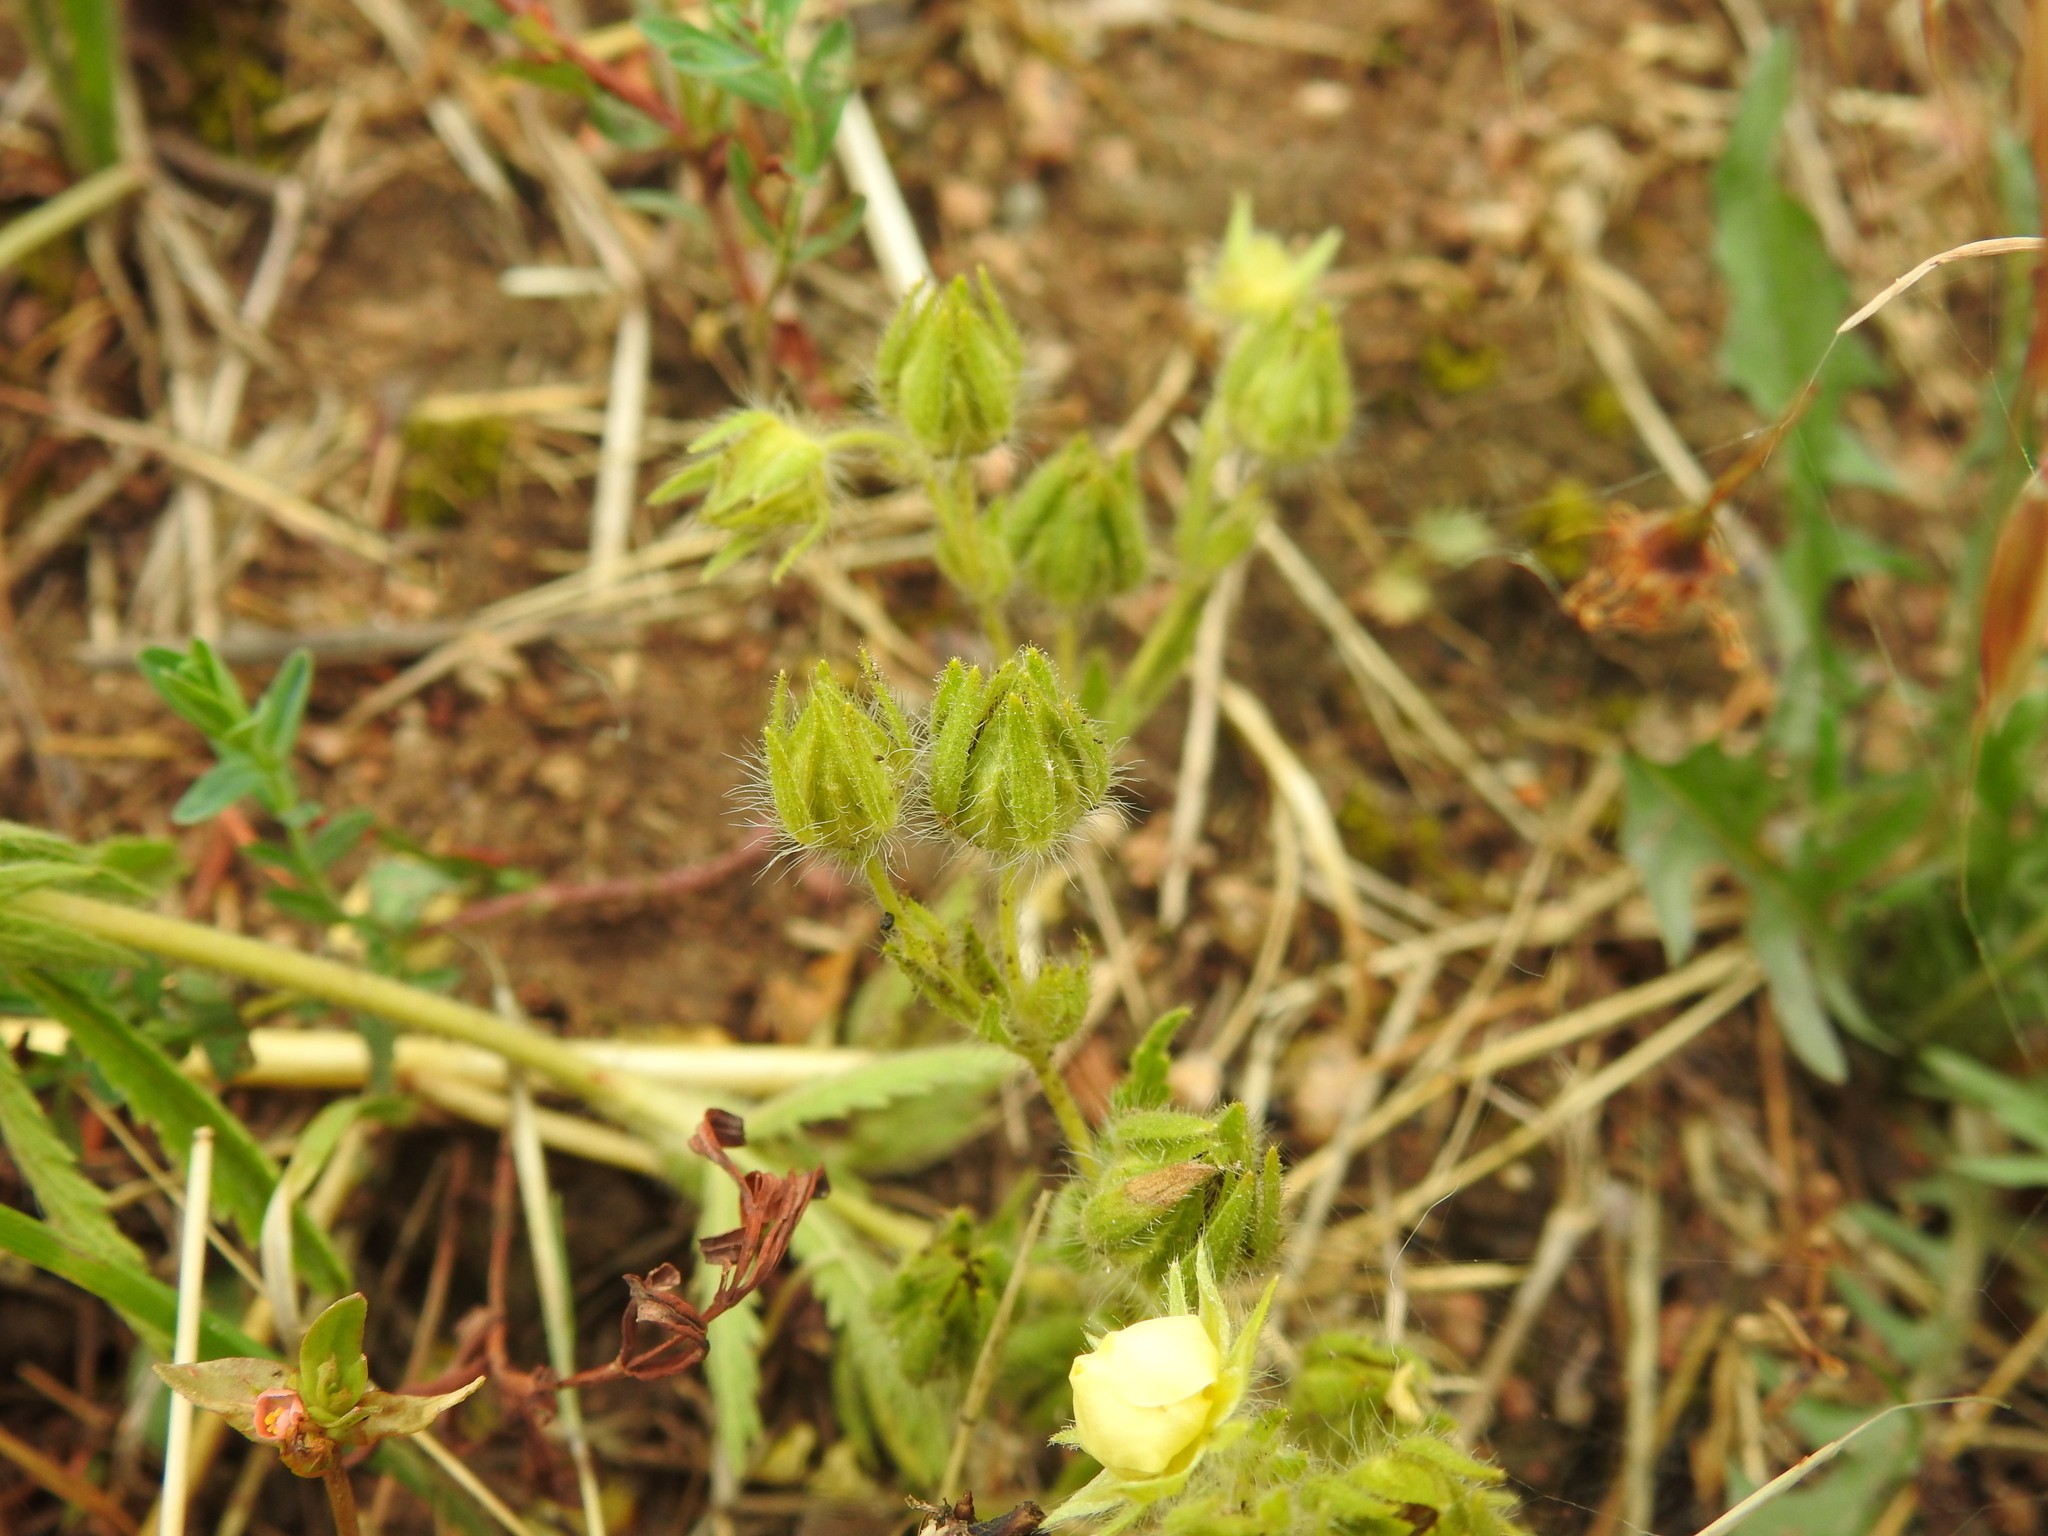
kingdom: Plantae
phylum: Tracheophyta
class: Magnoliopsida
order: Rosales
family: Rosaceae
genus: Potentilla
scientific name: Potentilla recta
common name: Sulphur cinquefoil
